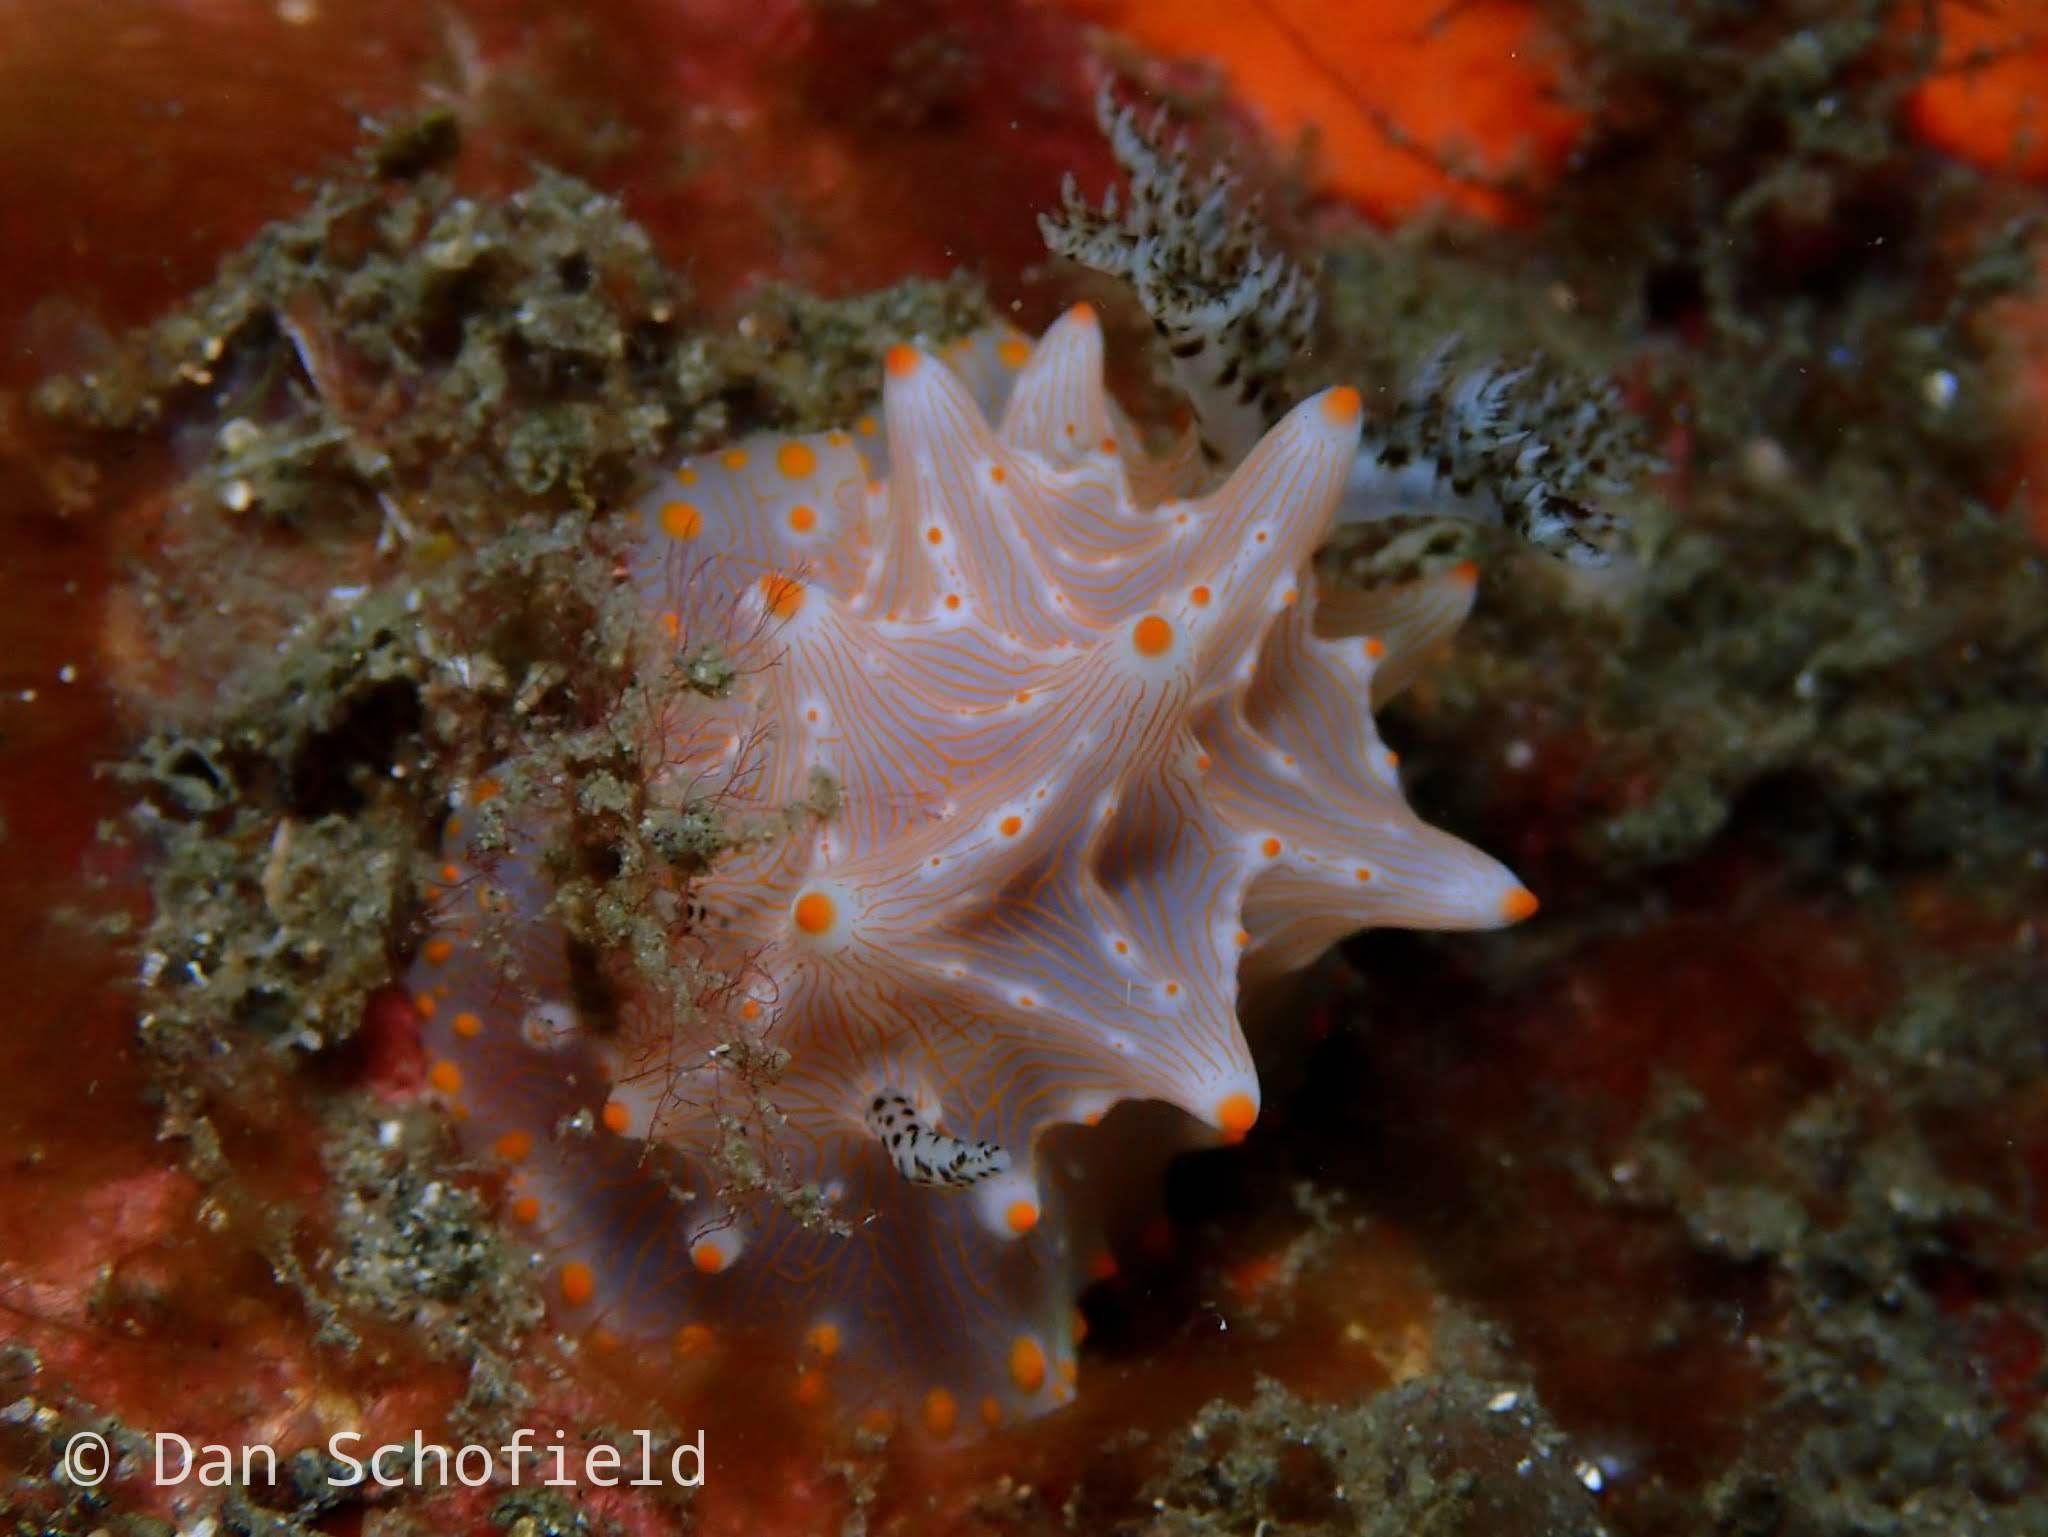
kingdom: Animalia
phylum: Mollusca
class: Gastropoda
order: Nudibranchia
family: Discodorididae
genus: Halgerda
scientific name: Halgerda batangas
